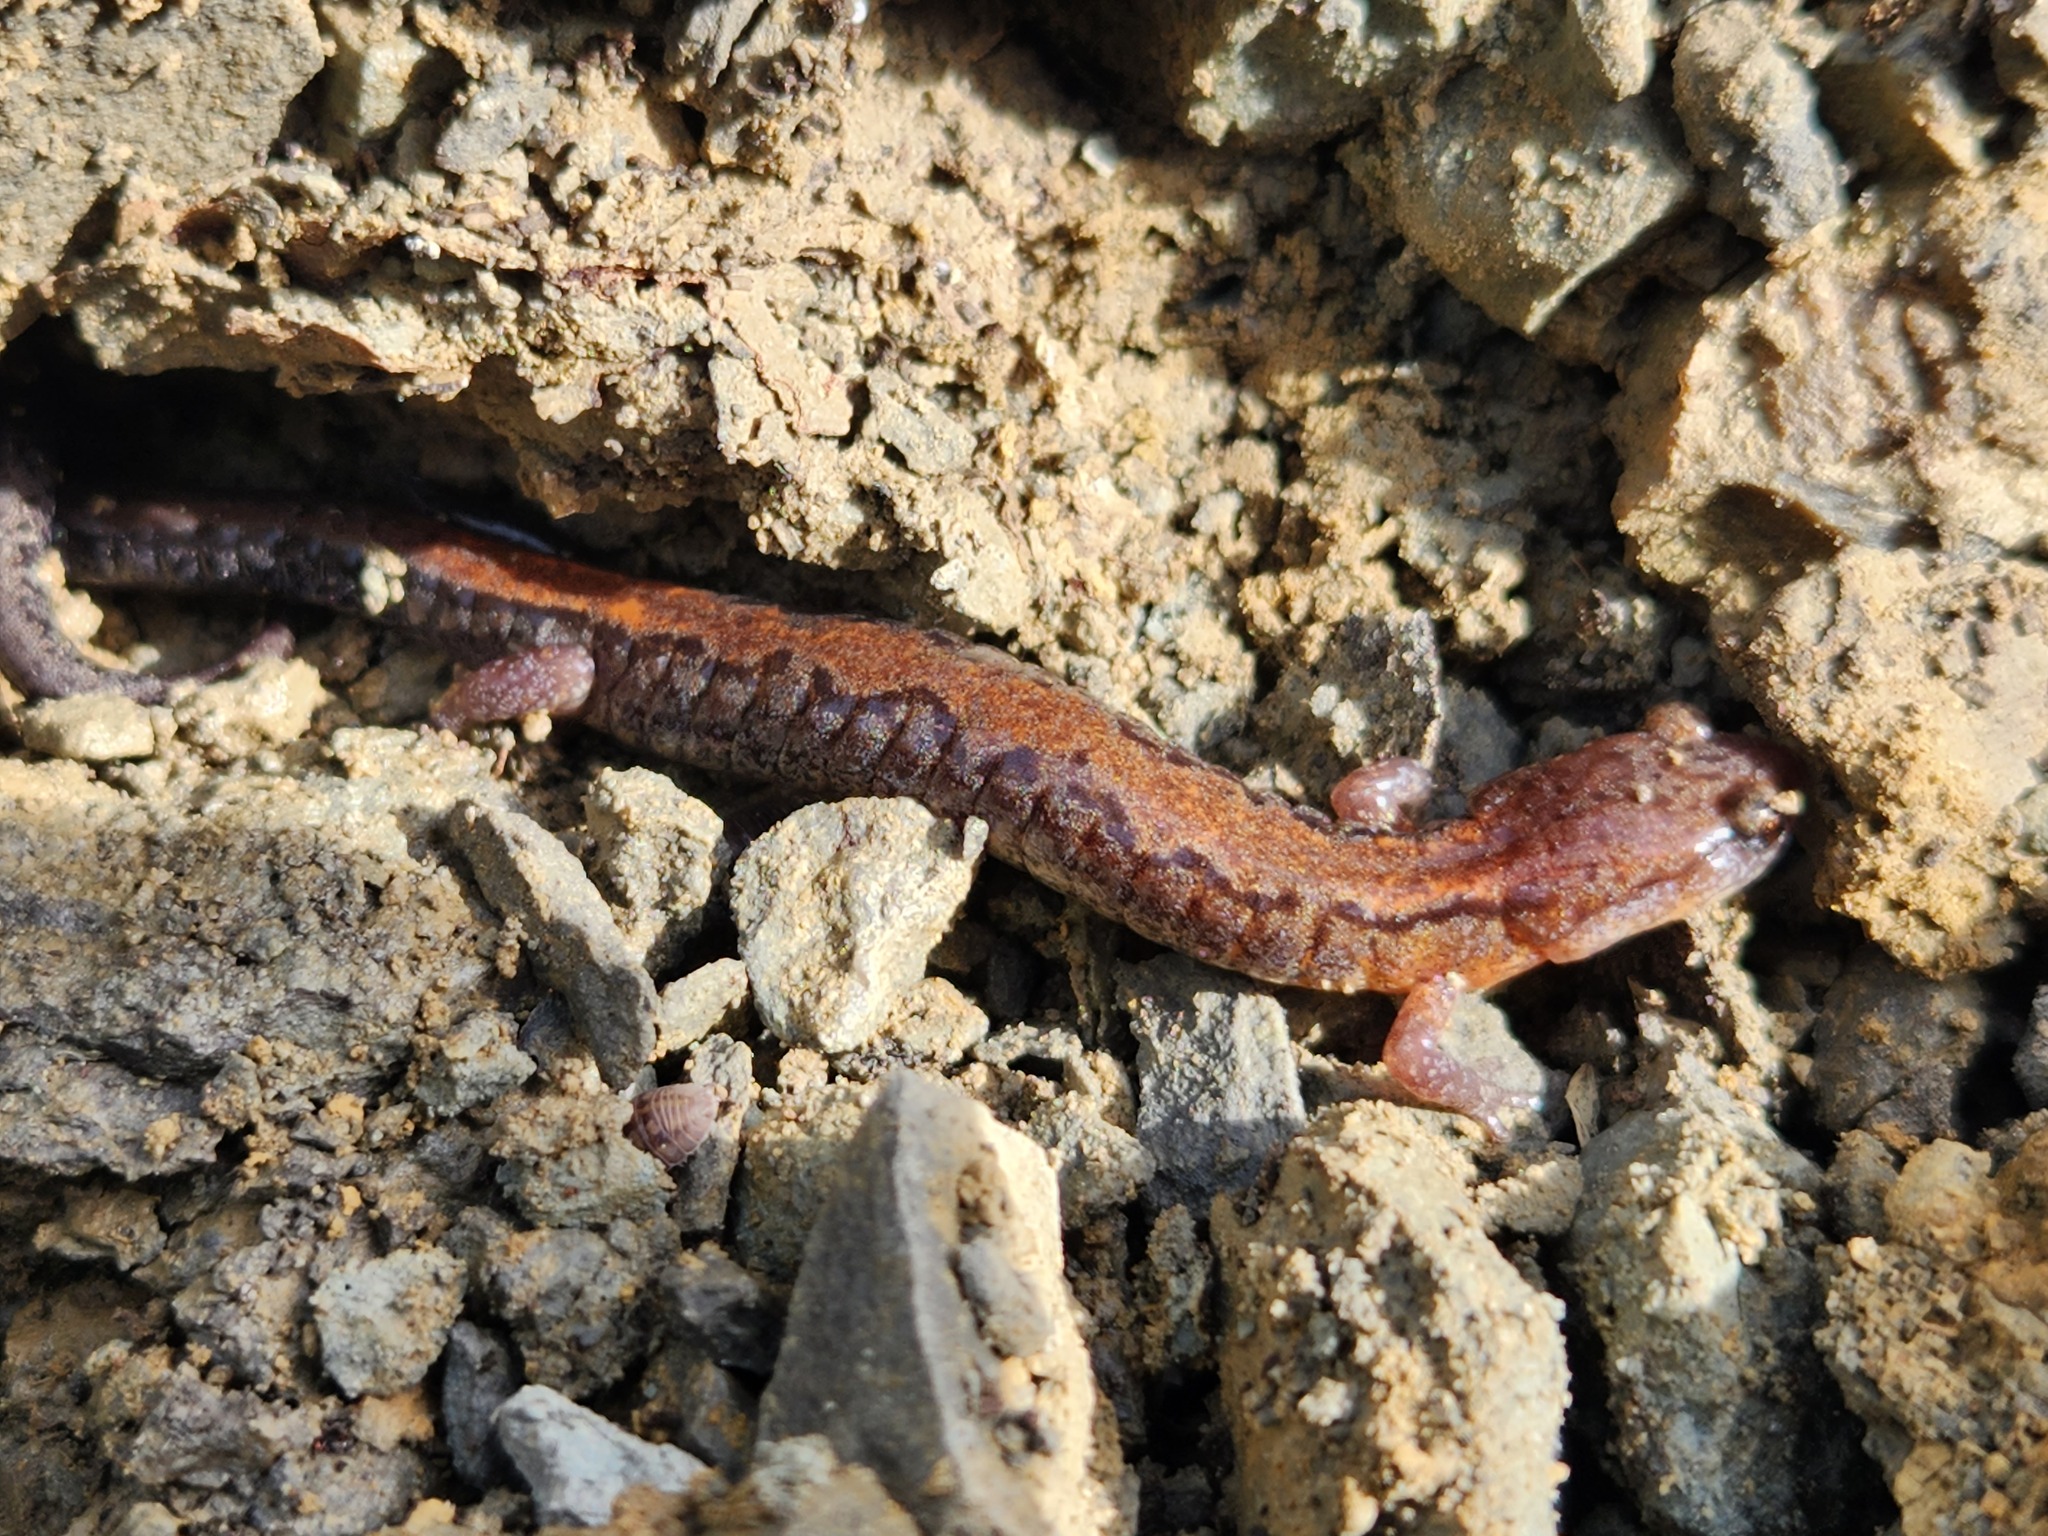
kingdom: Animalia
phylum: Chordata
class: Amphibia
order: Caudata
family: Plethodontidae
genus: Plethodon
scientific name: Plethodon dorsalis
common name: Northern zigzag salamander
